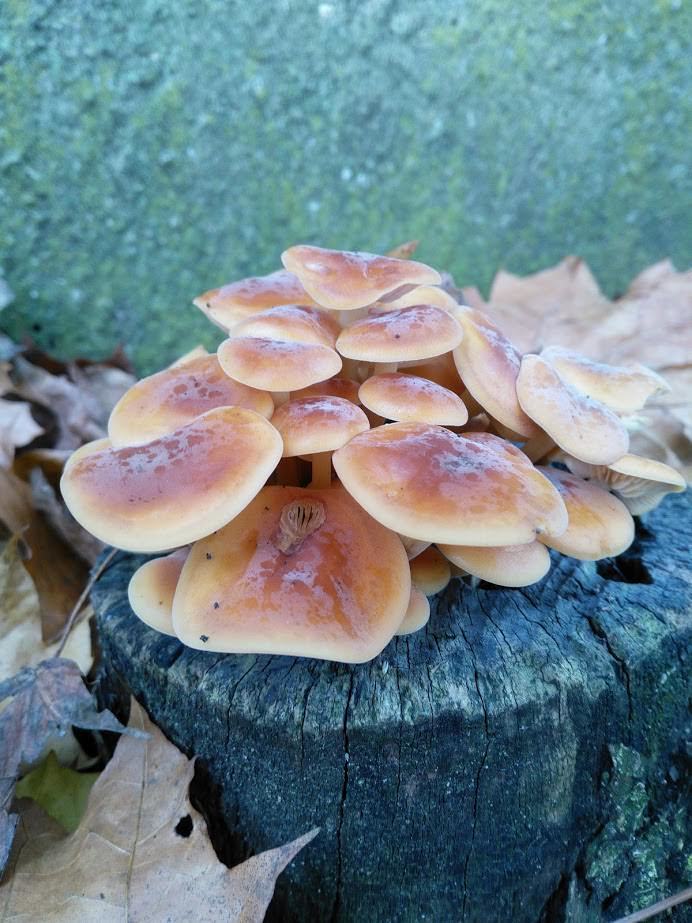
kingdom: Fungi
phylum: Basidiomycota
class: Agaricomycetes
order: Agaricales
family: Physalacriaceae
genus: Flammulina
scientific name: Flammulina
